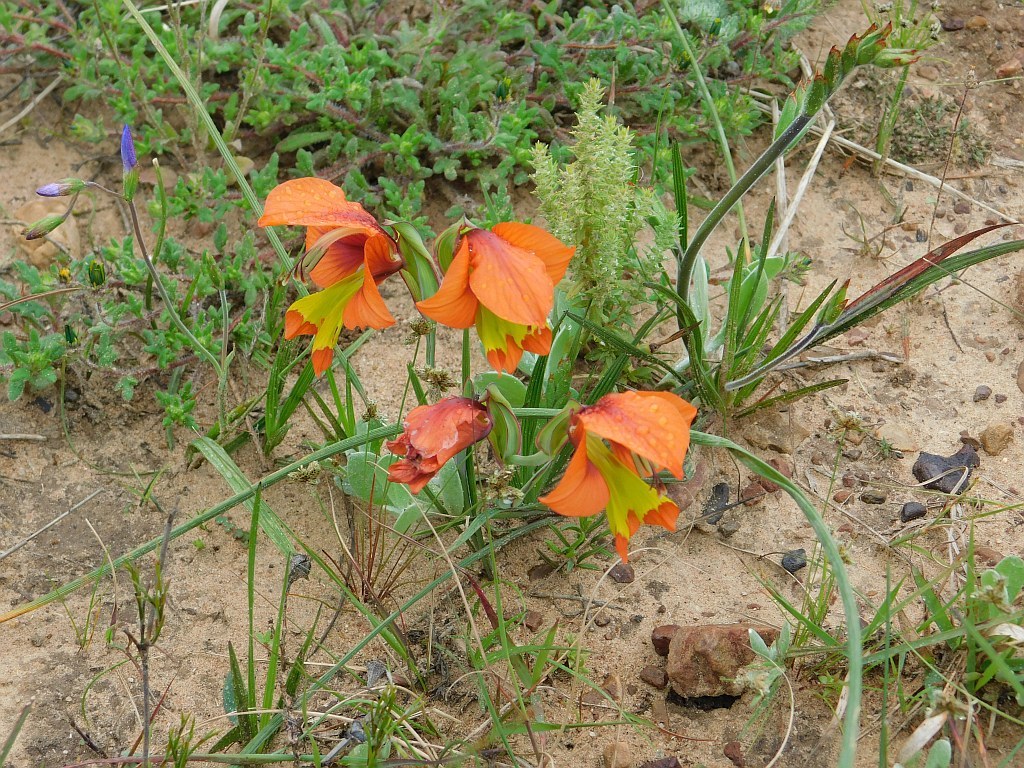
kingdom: Plantae
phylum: Tracheophyta
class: Liliopsida
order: Asparagales
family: Iridaceae
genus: Gladiolus
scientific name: Gladiolus alatus
